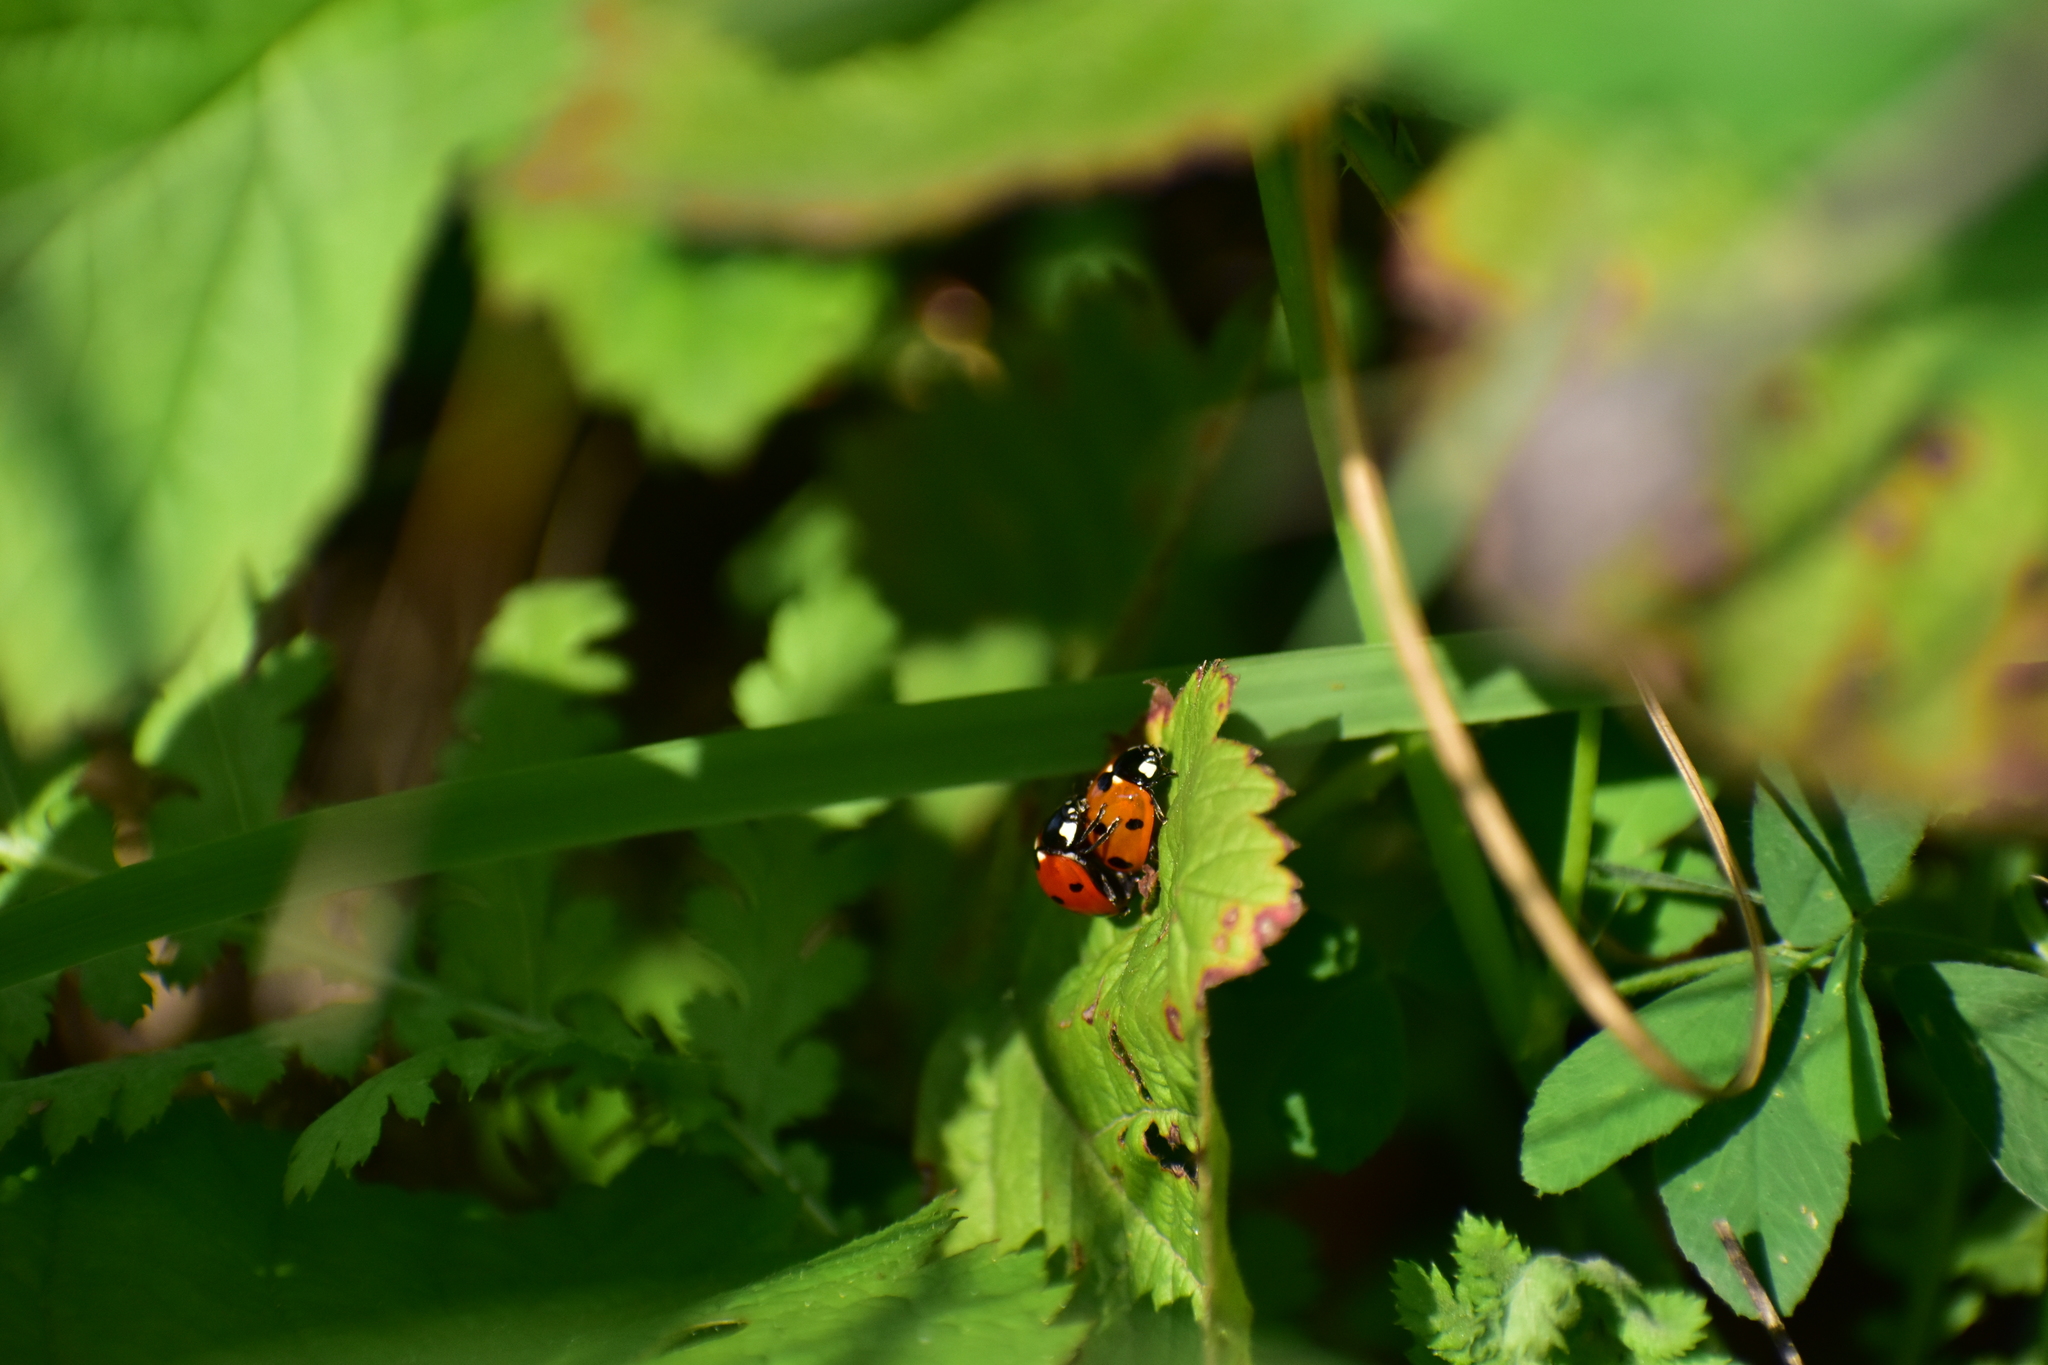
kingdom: Animalia
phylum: Arthropoda
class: Insecta
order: Coleoptera
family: Coccinellidae
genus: Coccinella
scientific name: Coccinella septempunctata
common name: Sevenspotted lady beetle
